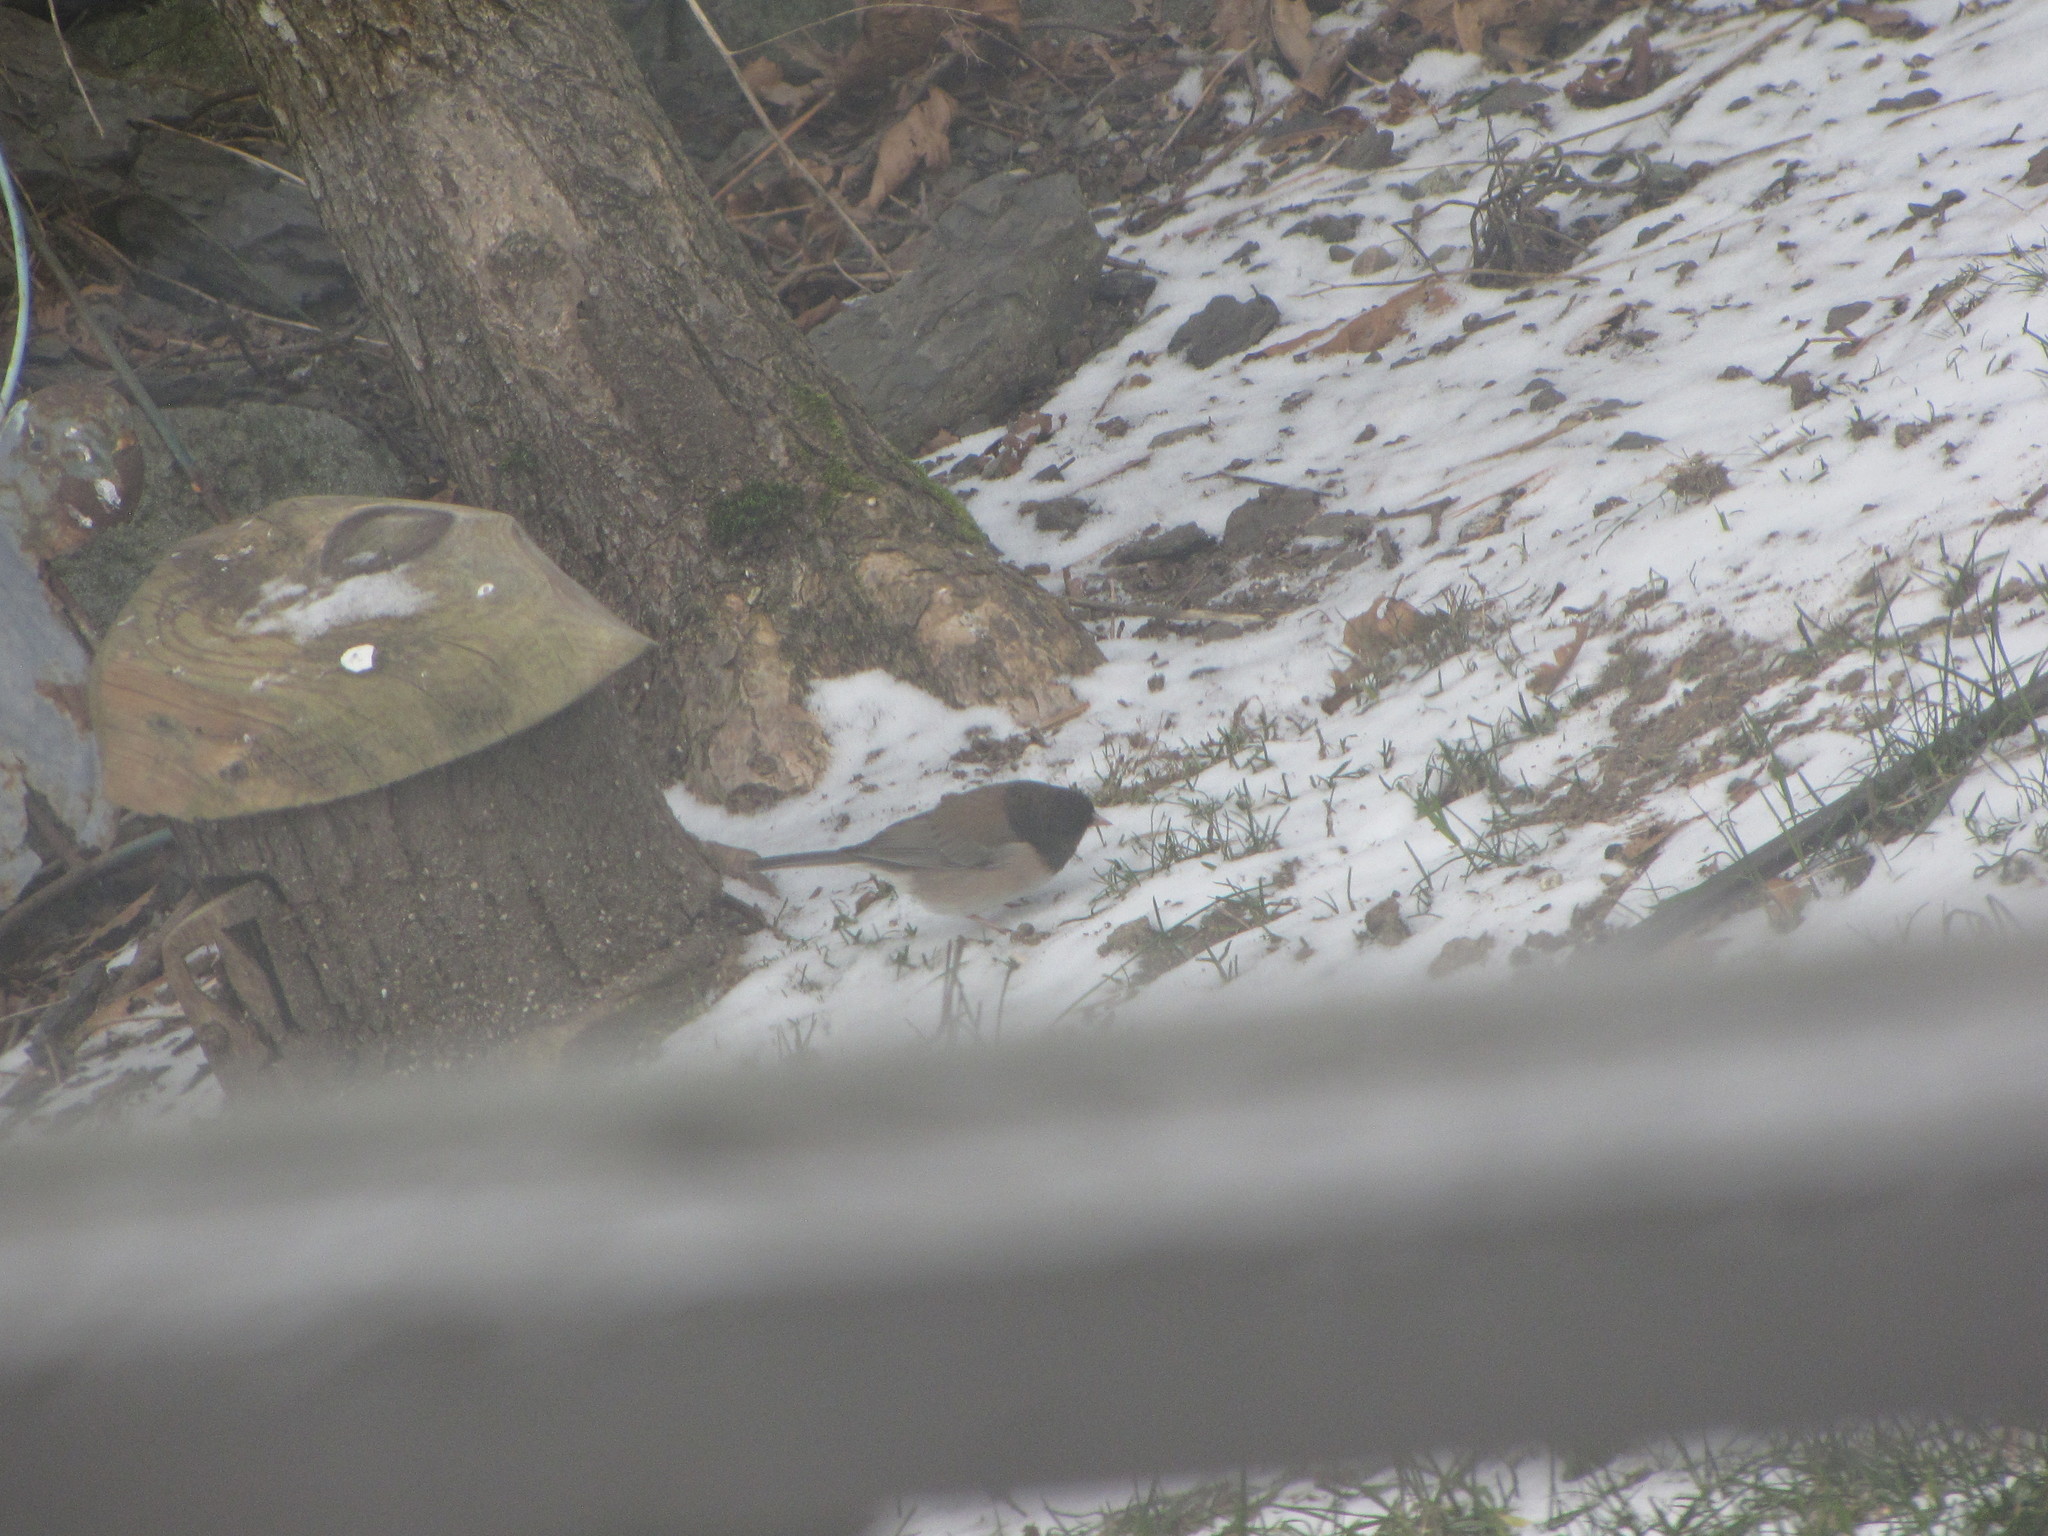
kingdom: Animalia
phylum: Chordata
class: Aves
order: Passeriformes
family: Passerellidae
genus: Junco
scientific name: Junco hyemalis
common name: Dark-eyed junco
